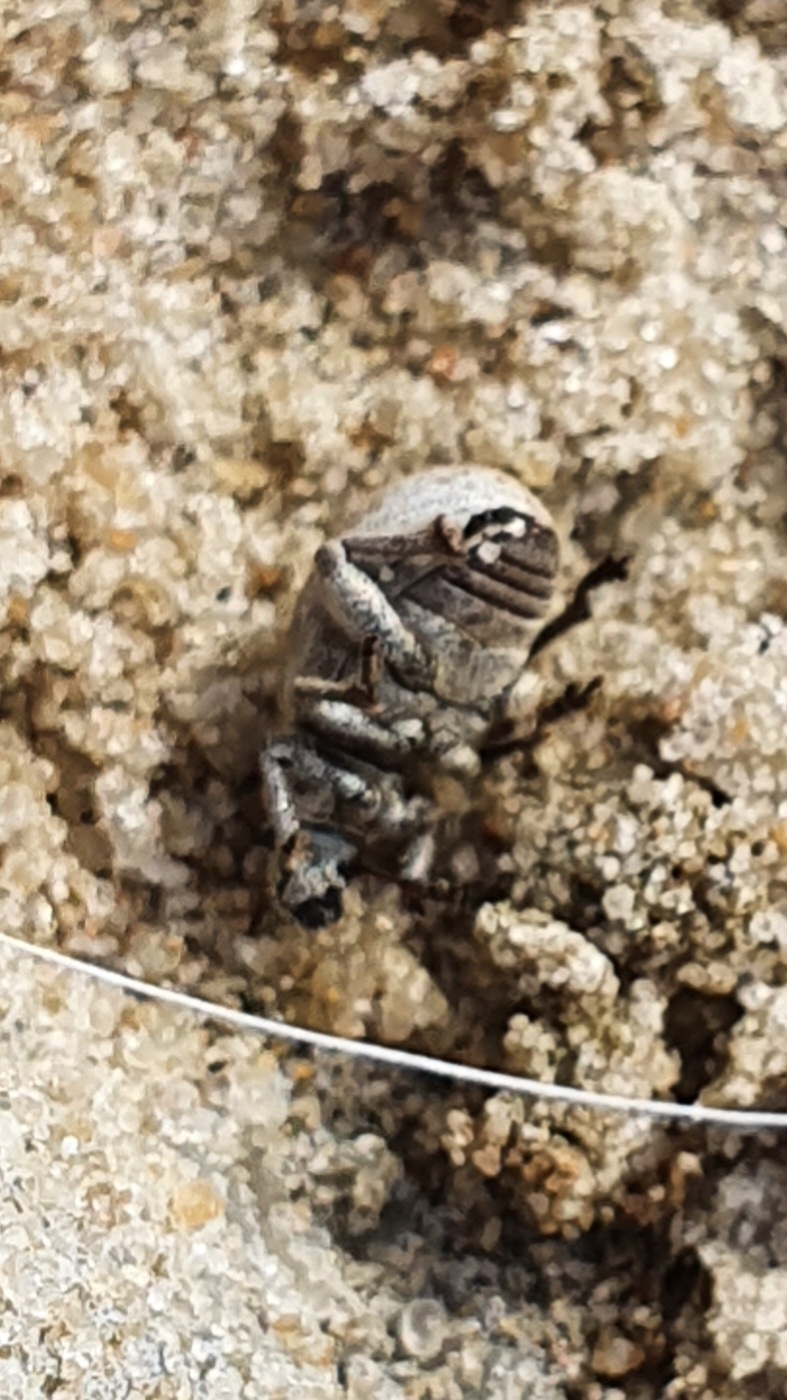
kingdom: Animalia
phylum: Arthropoda
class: Insecta
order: Coleoptera
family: Curculionidae
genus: Philopedon
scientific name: Philopedon plagiatum
